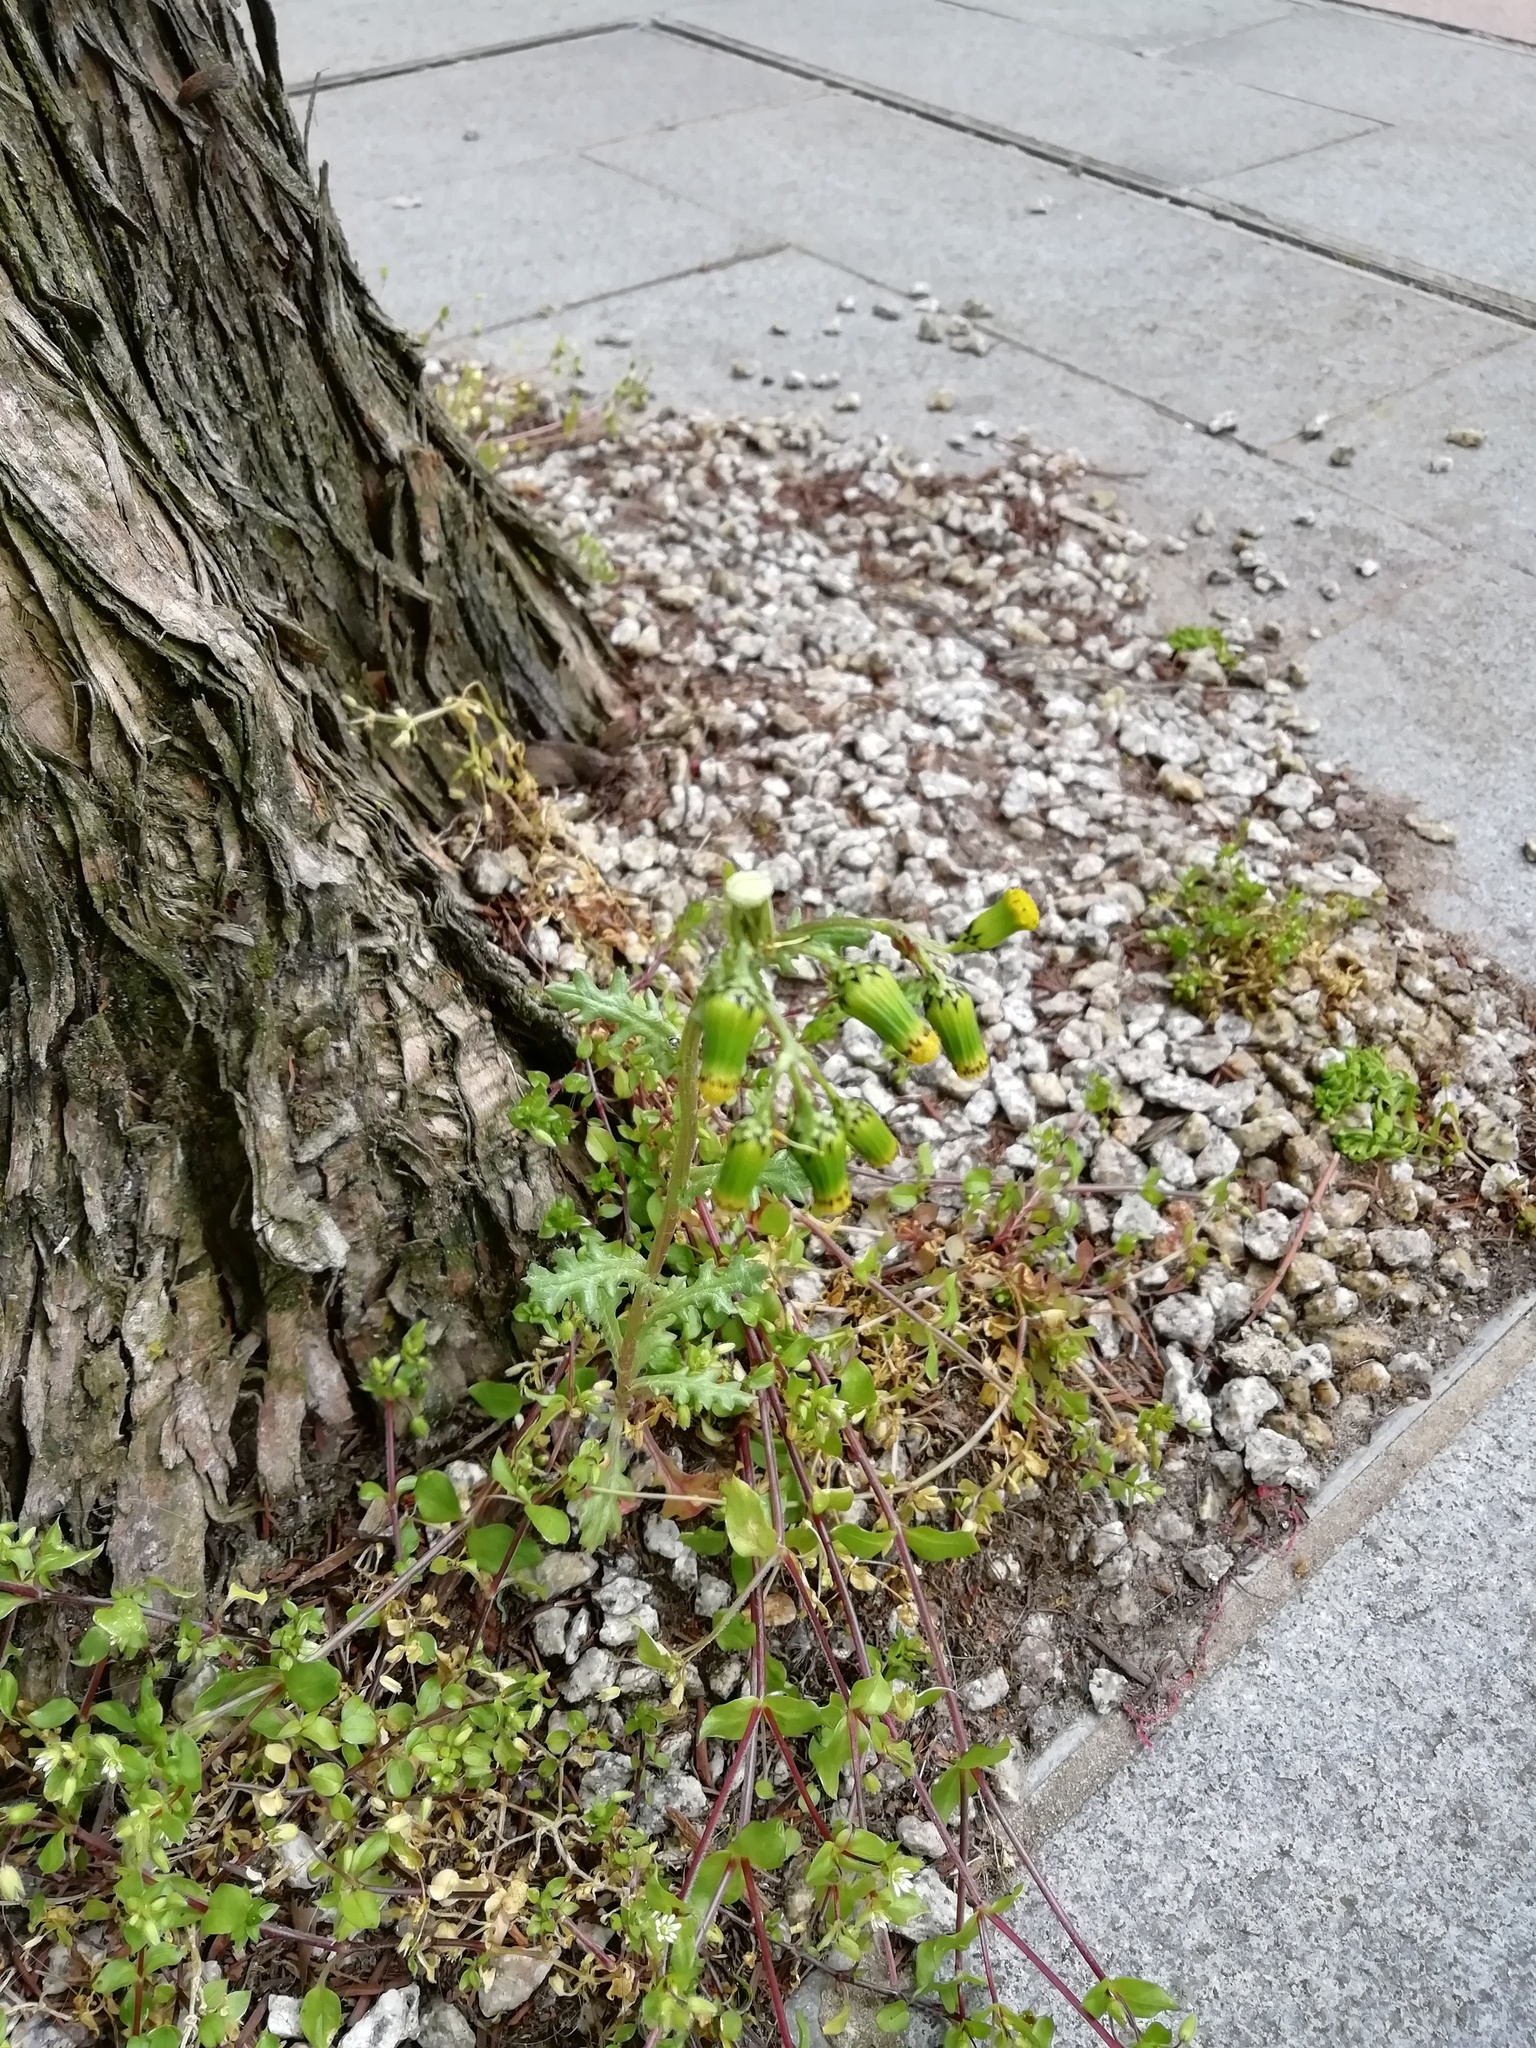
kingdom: Plantae
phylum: Tracheophyta
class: Magnoliopsida
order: Asterales
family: Asteraceae
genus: Senecio
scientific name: Senecio vulgaris
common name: Old-man-in-the-spring
